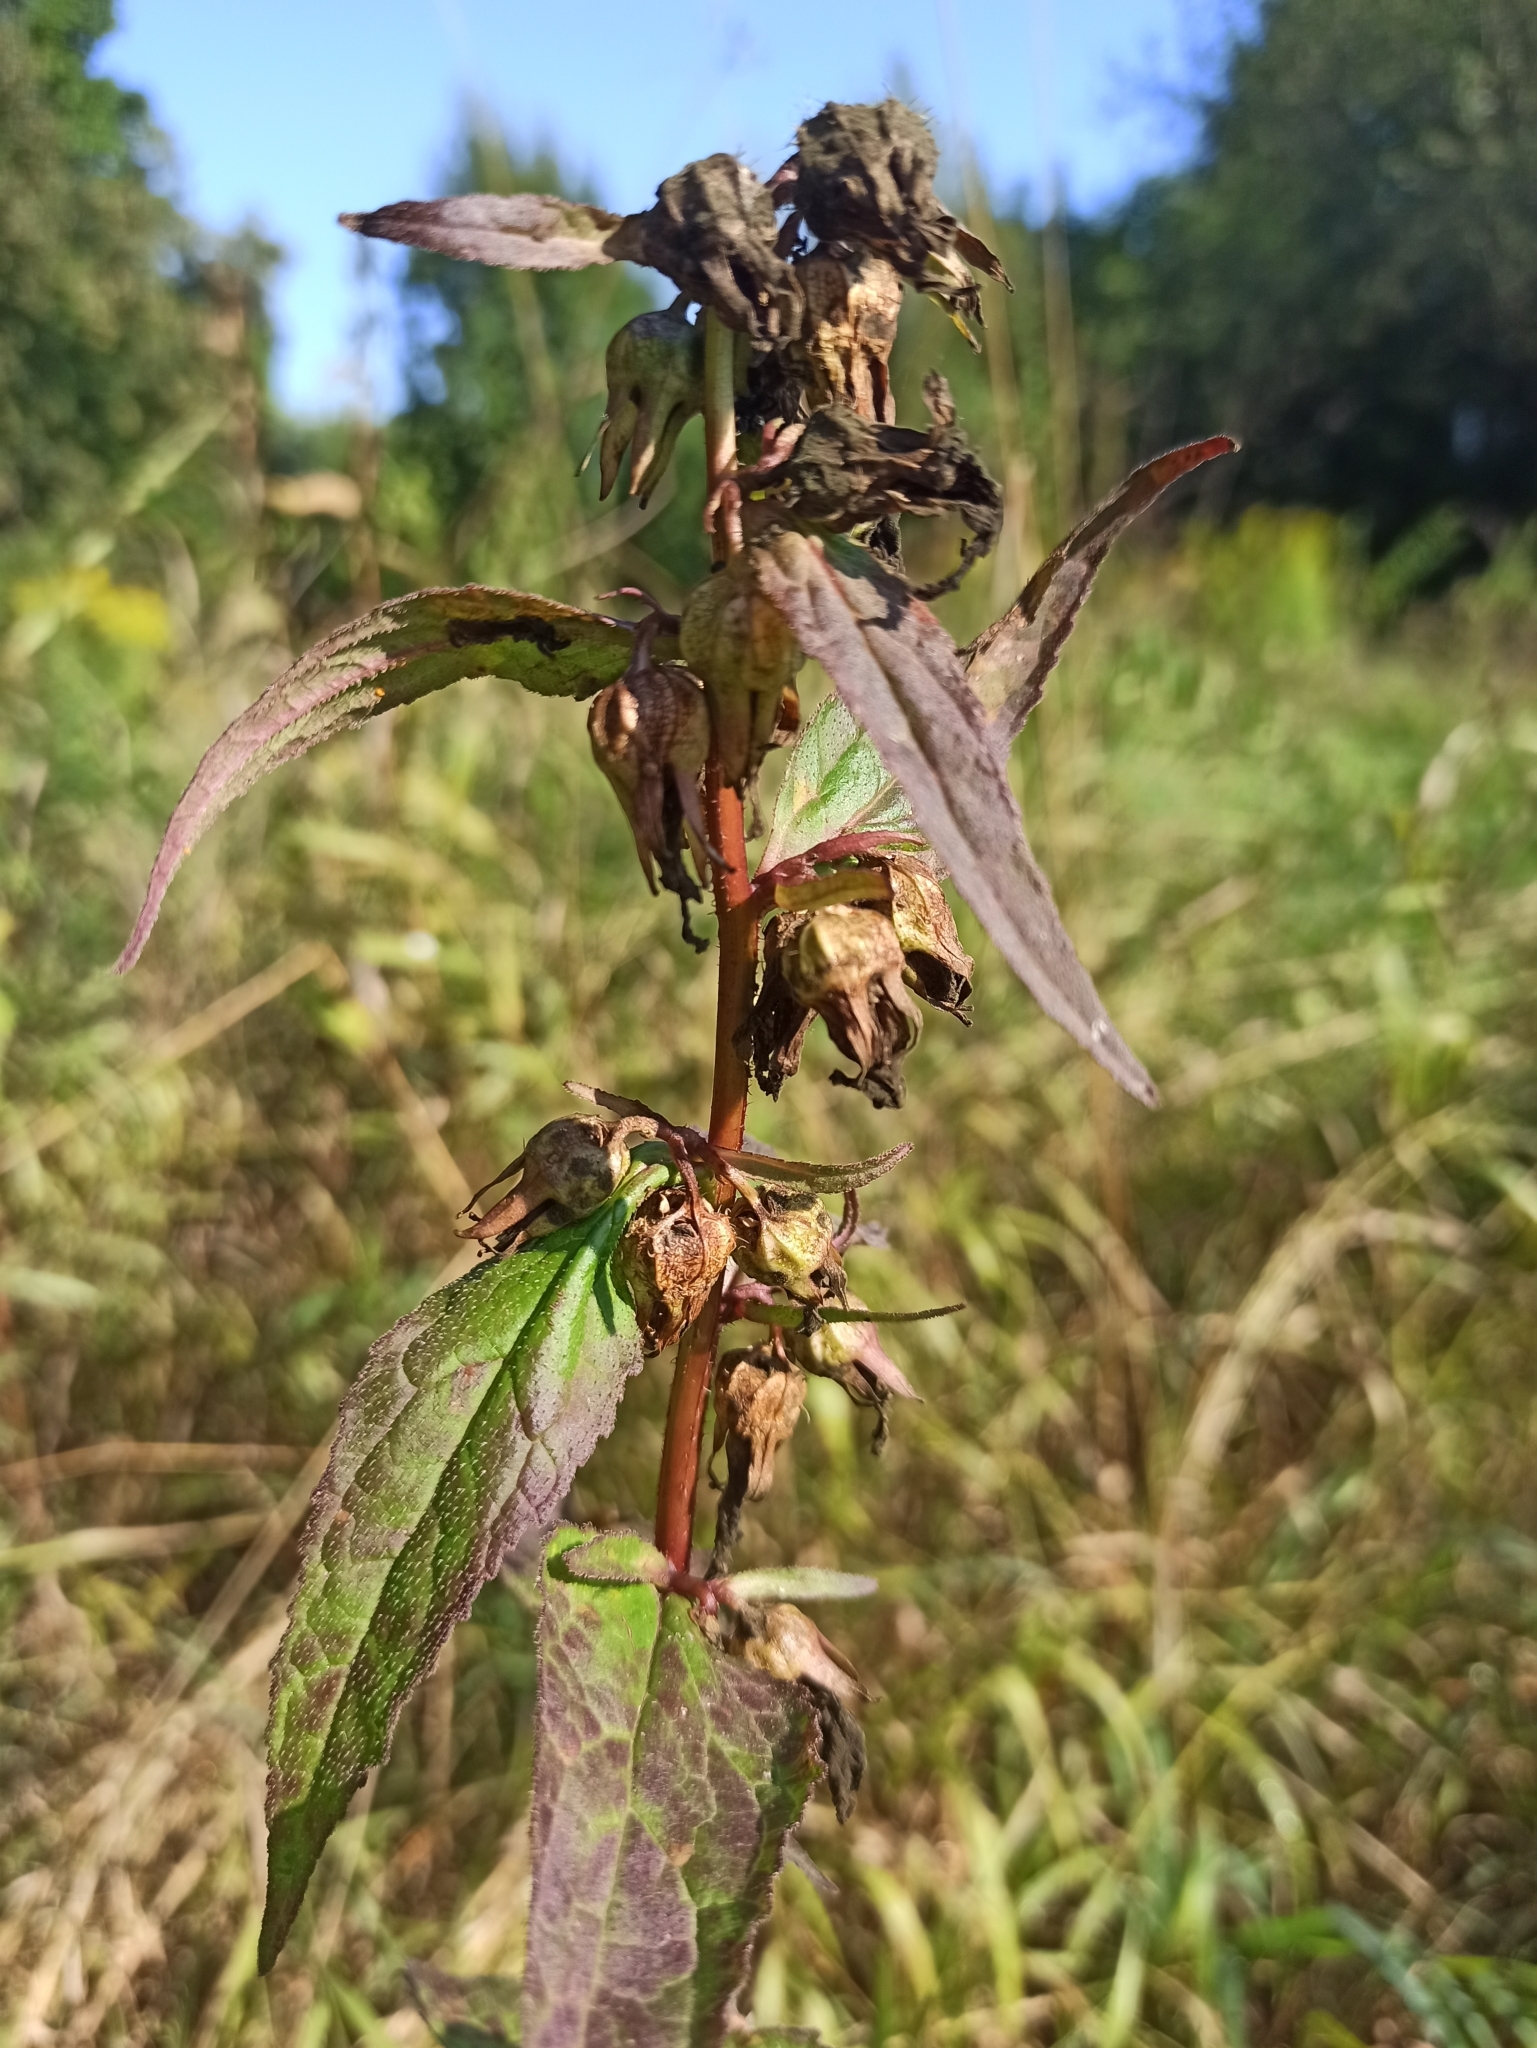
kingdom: Plantae
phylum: Tracheophyta
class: Magnoliopsida
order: Asterales
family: Campanulaceae
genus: Campanula
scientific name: Campanula trachelium
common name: Nettle-leaved bellflower
